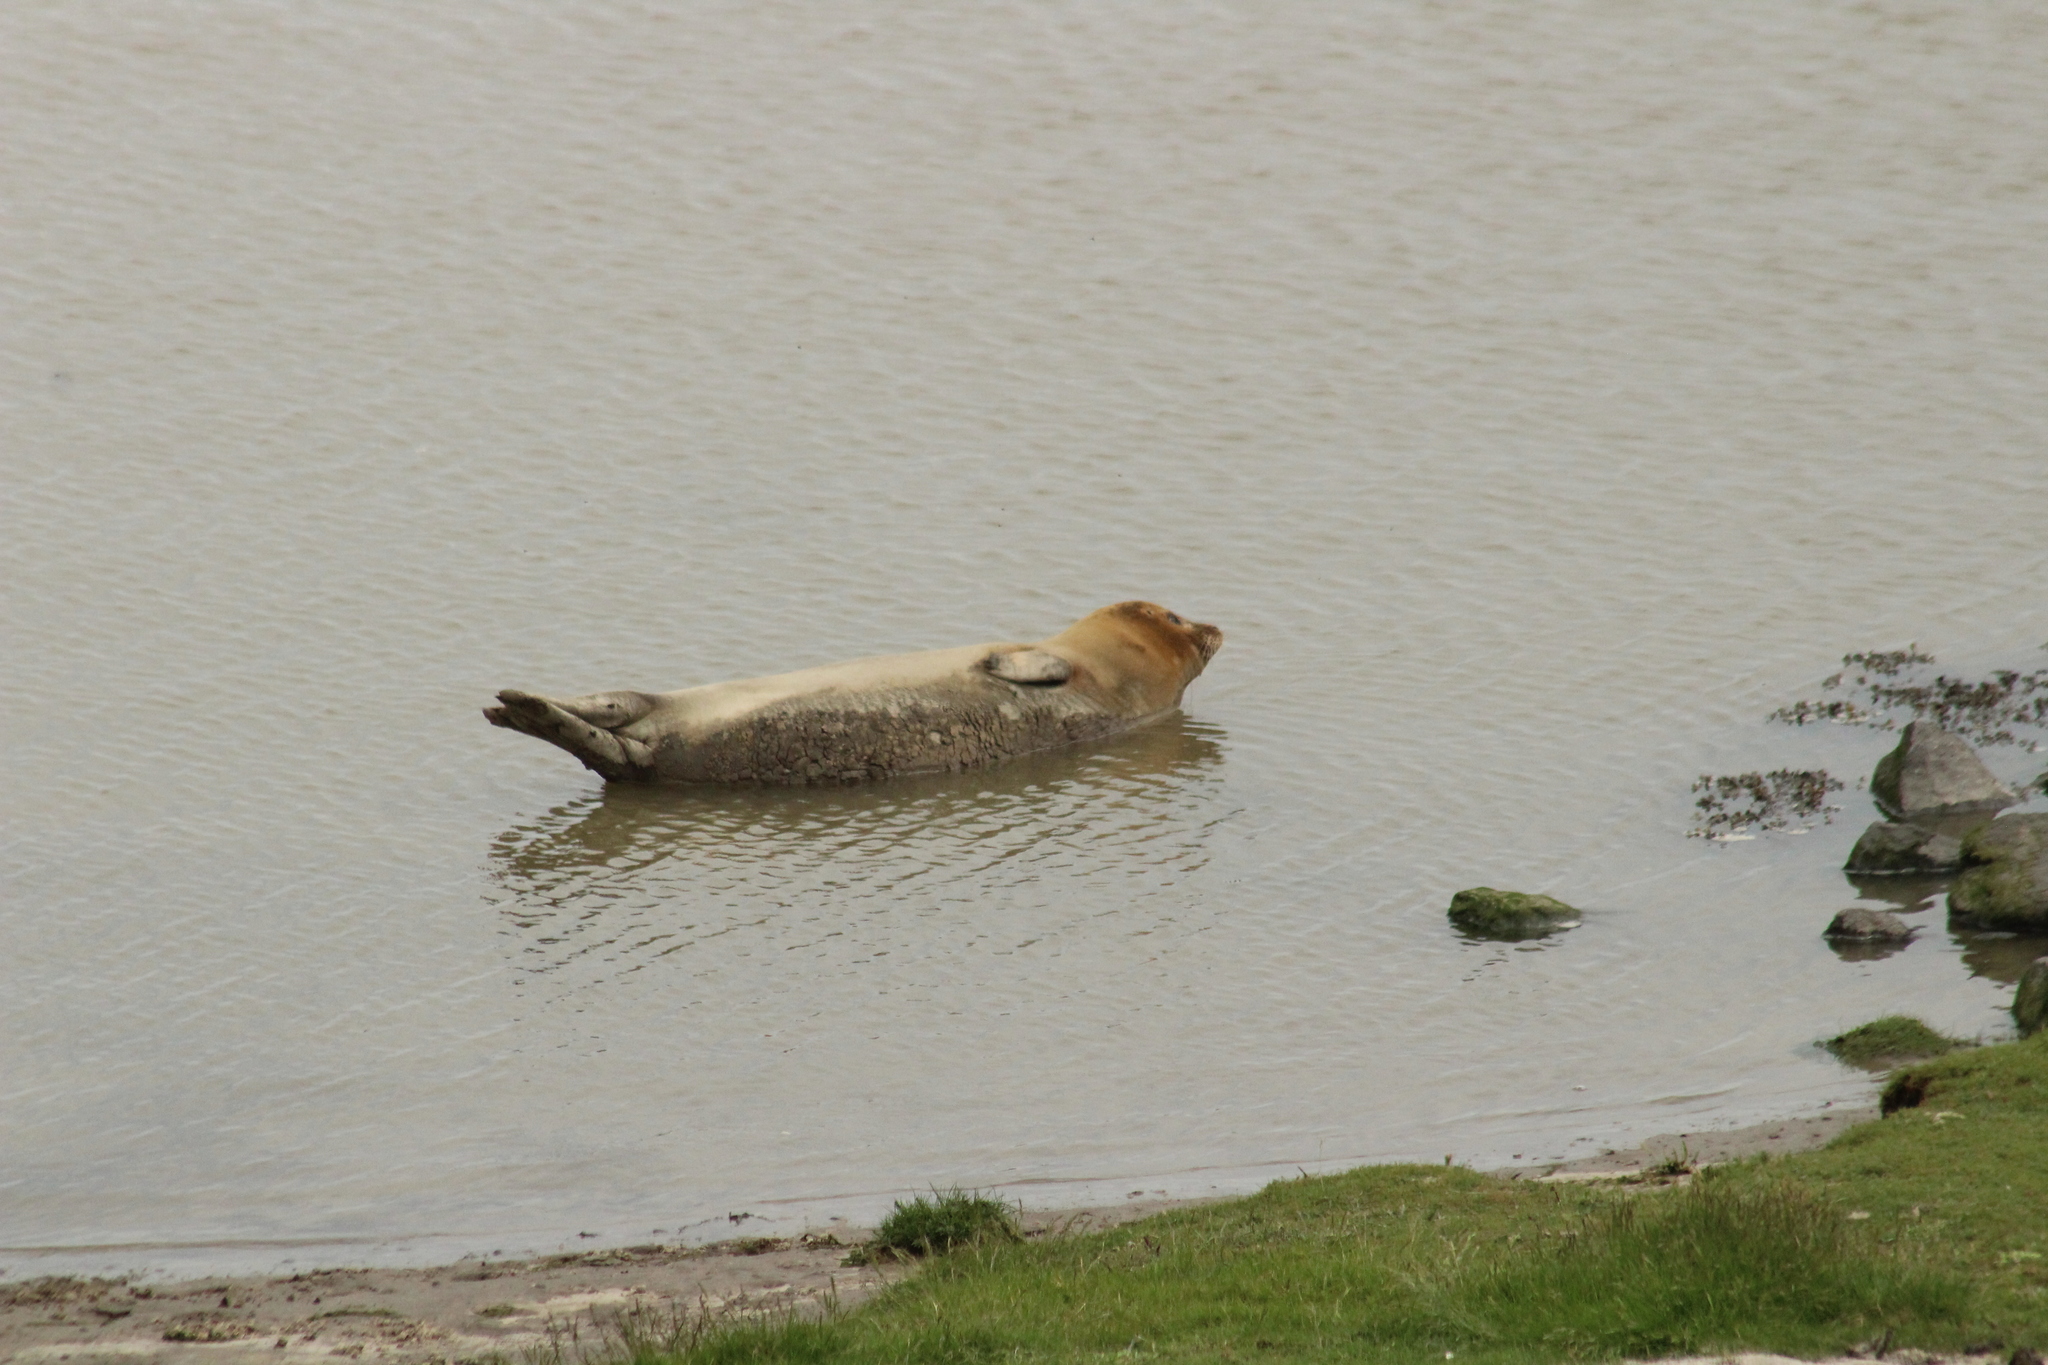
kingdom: Animalia
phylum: Chordata
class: Mammalia
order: Carnivora
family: Phocidae
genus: Phoca
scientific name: Phoca vitulina
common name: Harbor seal
